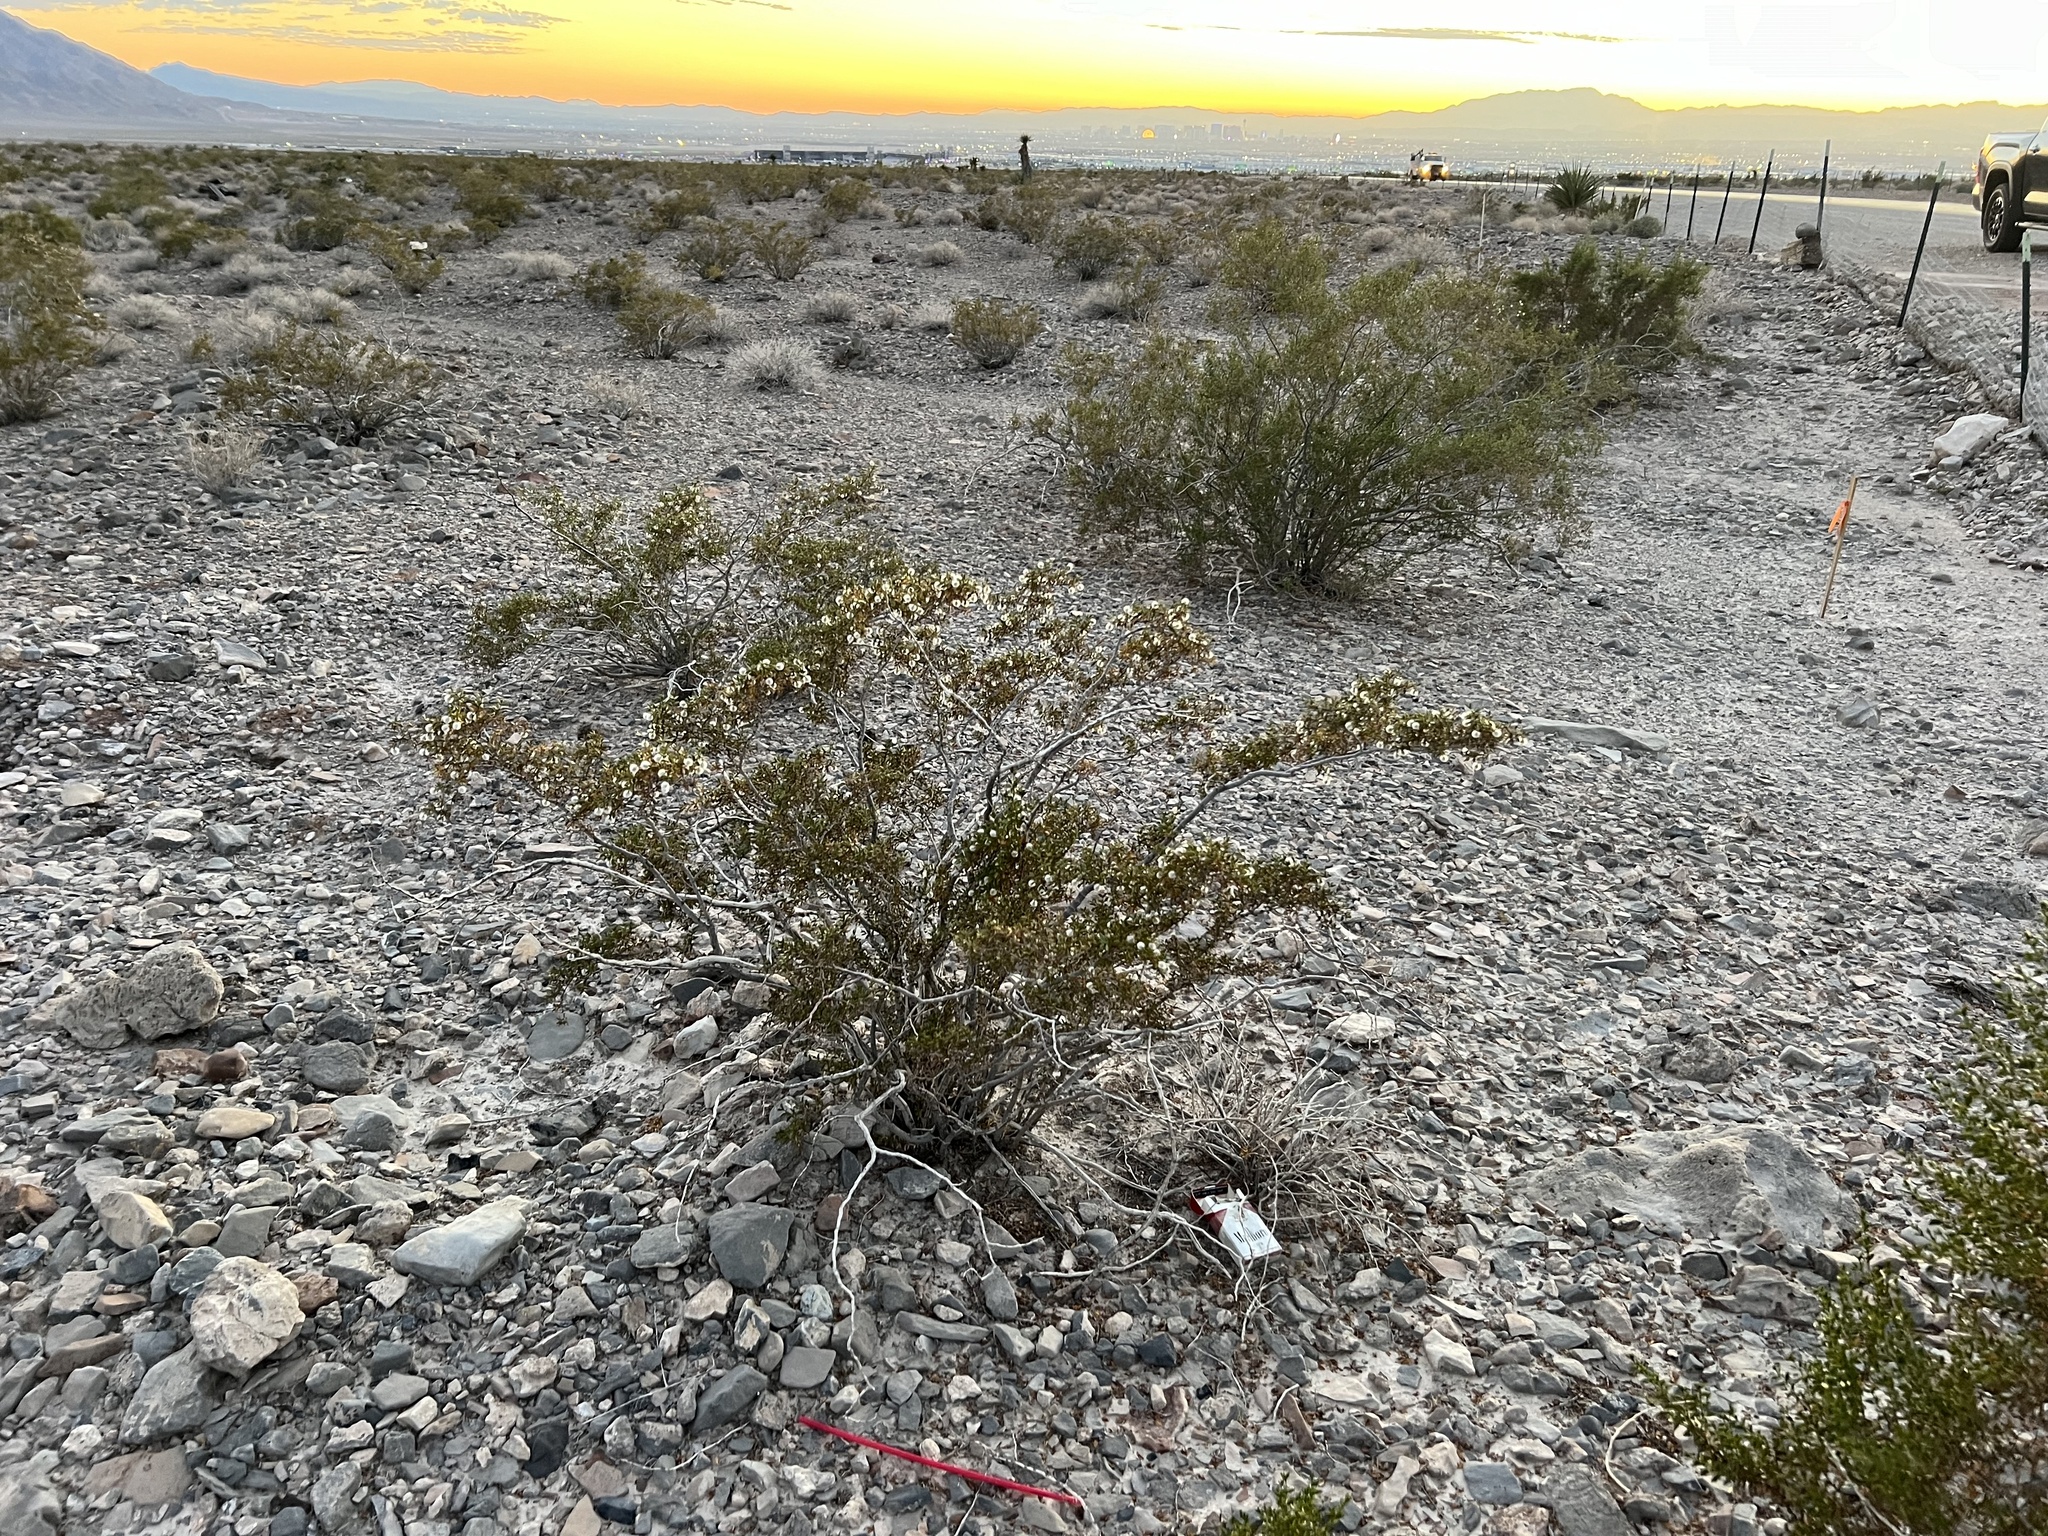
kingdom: Plantae
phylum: Tracheophyta
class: Magnoliopsida
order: Zygophyllales
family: Zygophyllaceae
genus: Larrea
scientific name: Larrea tridentata
